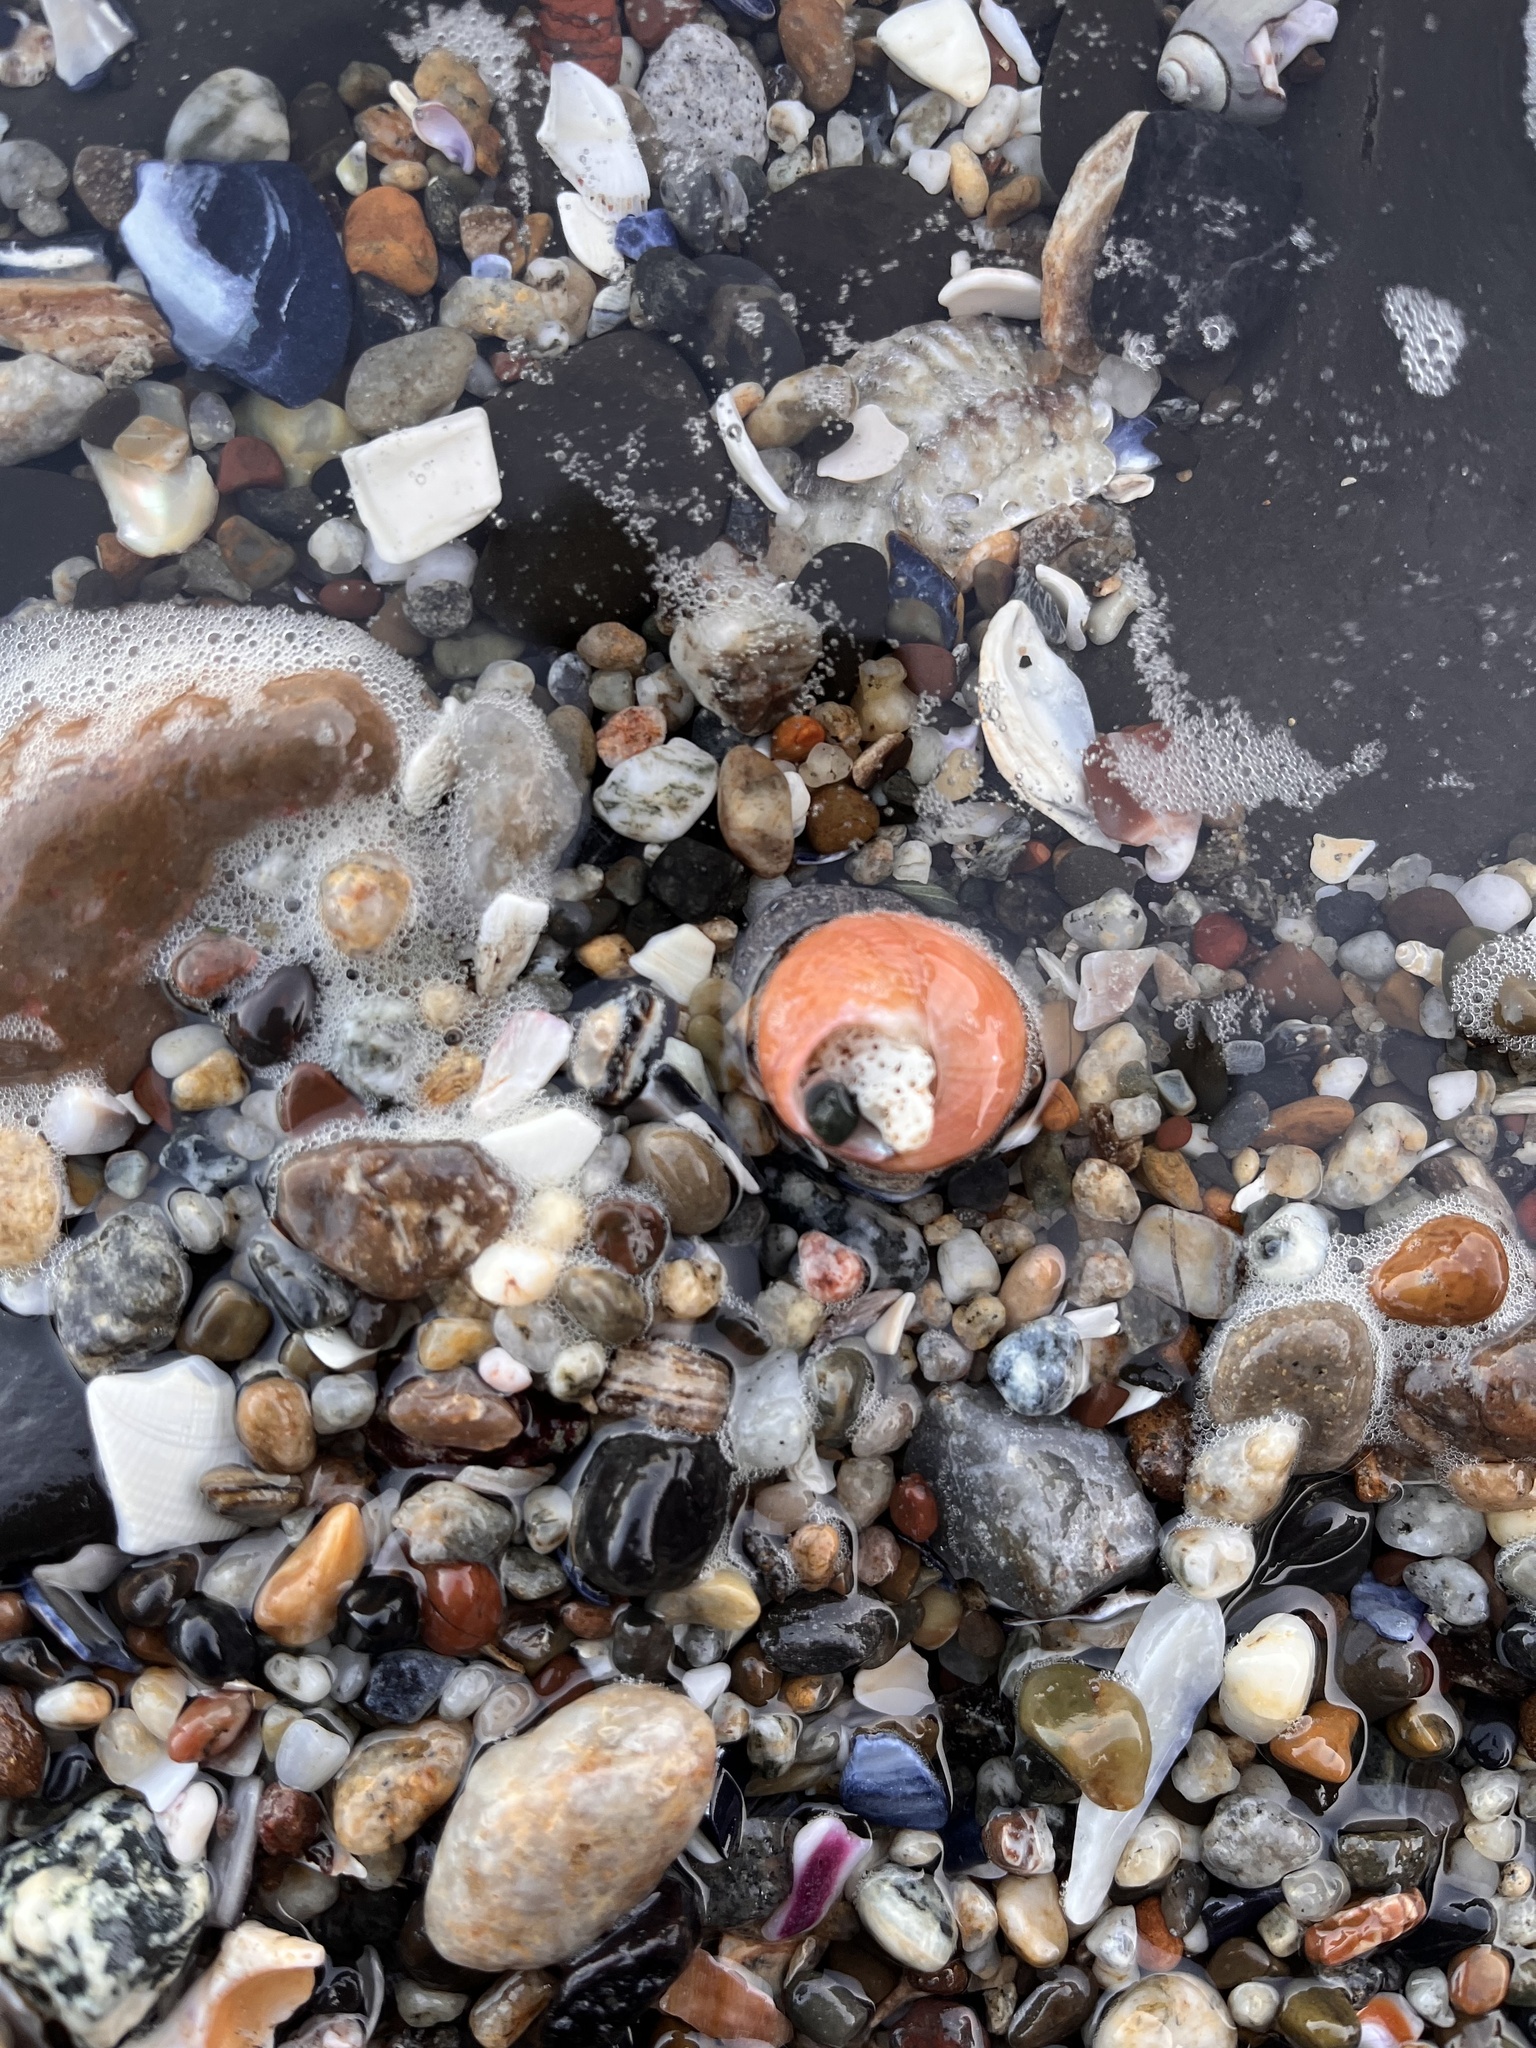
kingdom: Animalia
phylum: Mollusca
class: Gastropoda
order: Trochida
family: Calliostomatidae
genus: Calliostoma
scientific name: Calliostoma gloriosum
